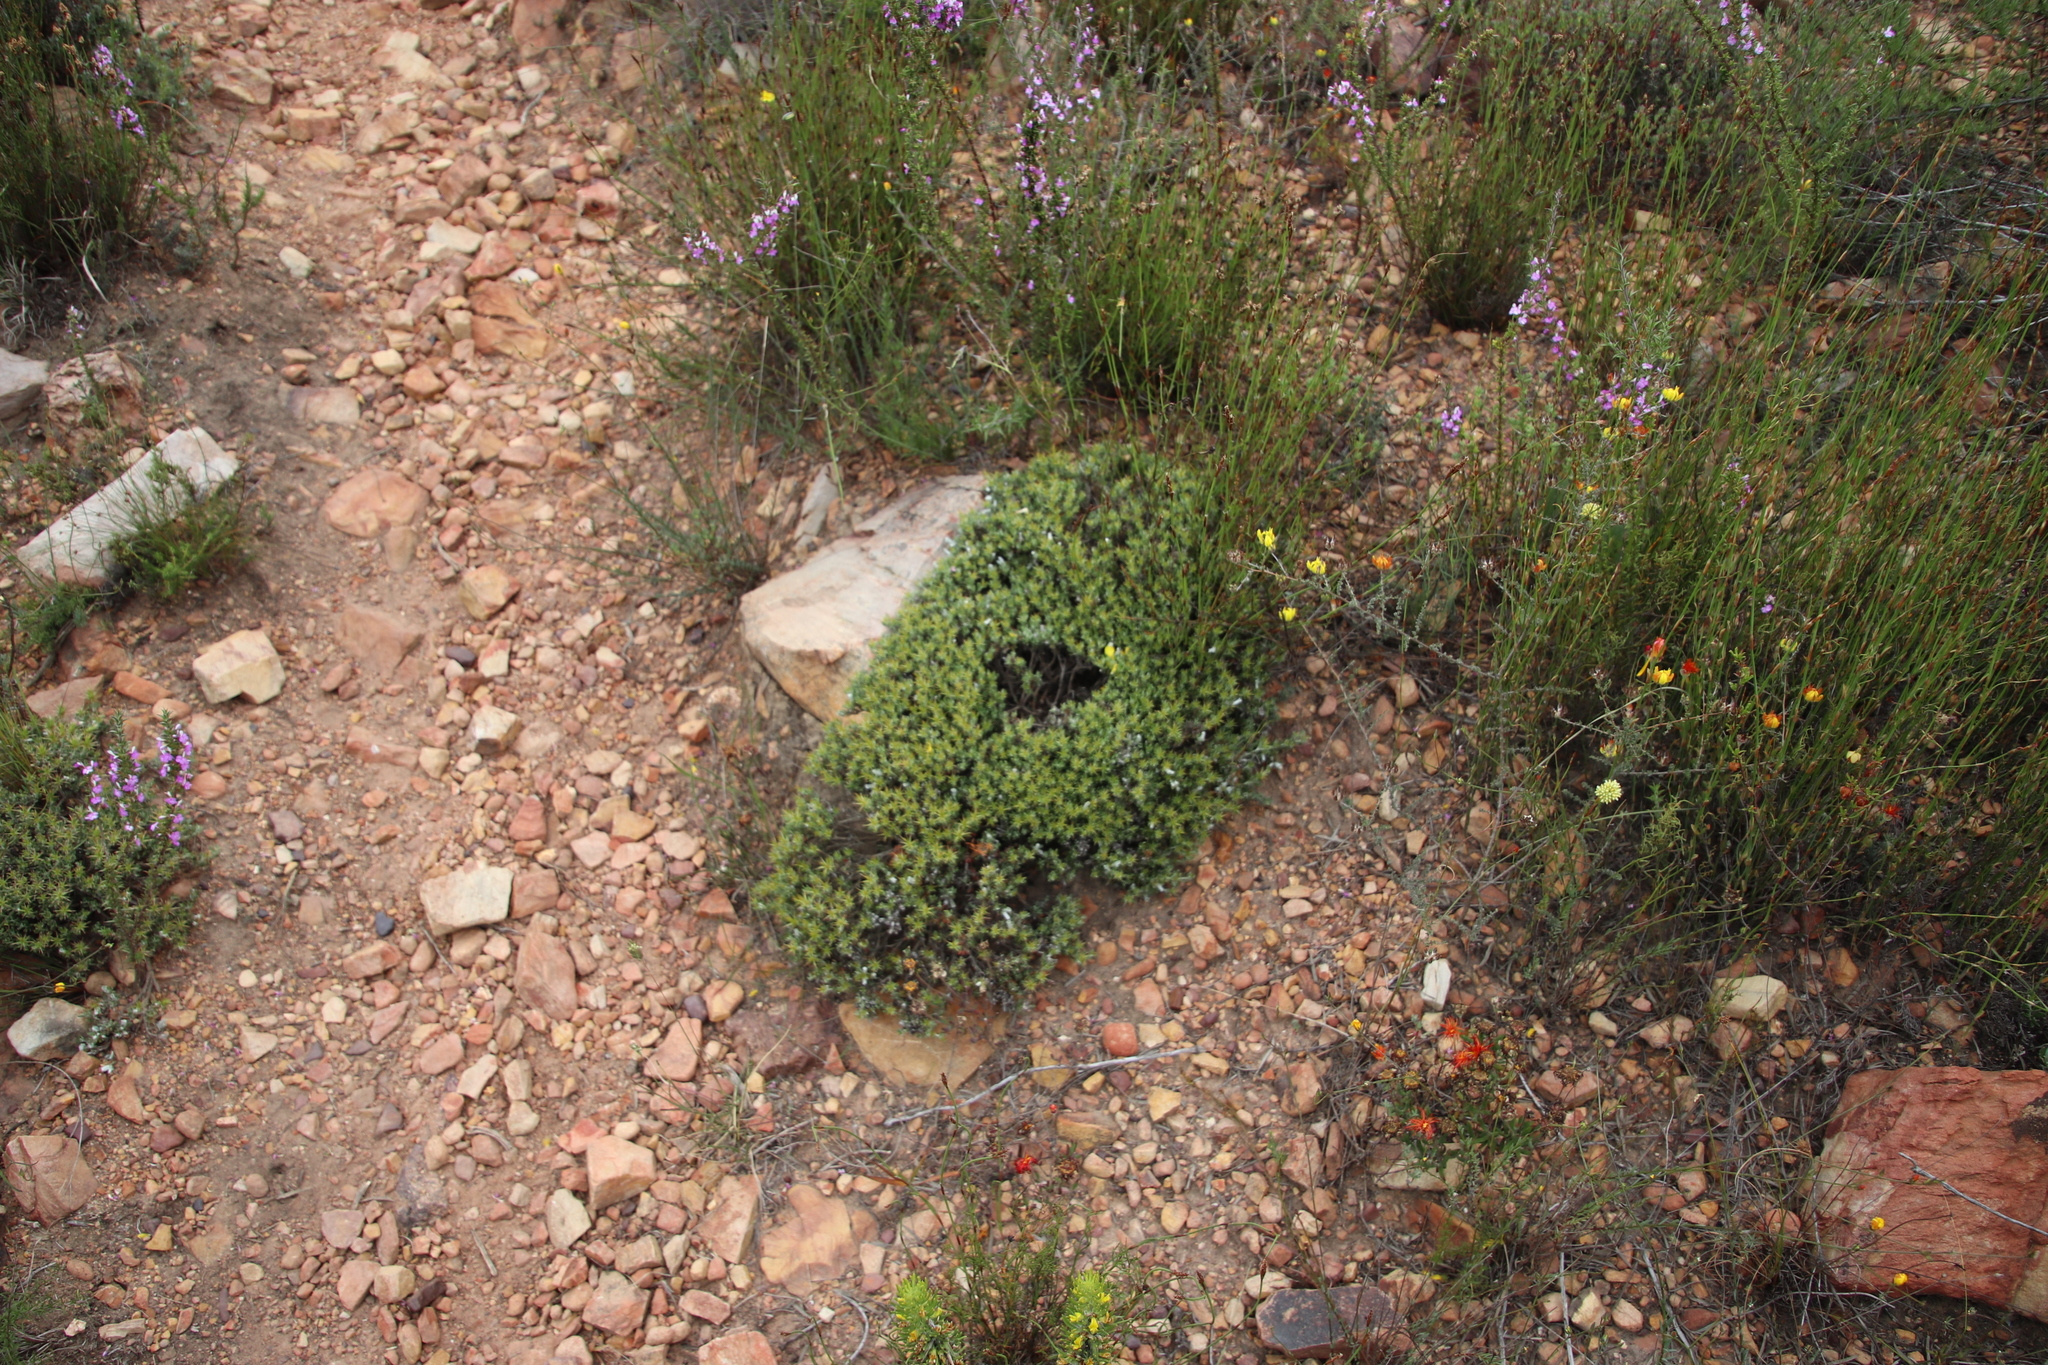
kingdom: Plantae
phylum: Tracheophyta
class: Magnoliopsida
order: Asterales
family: Asteraceae
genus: Macledium
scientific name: Macledium spinosum
